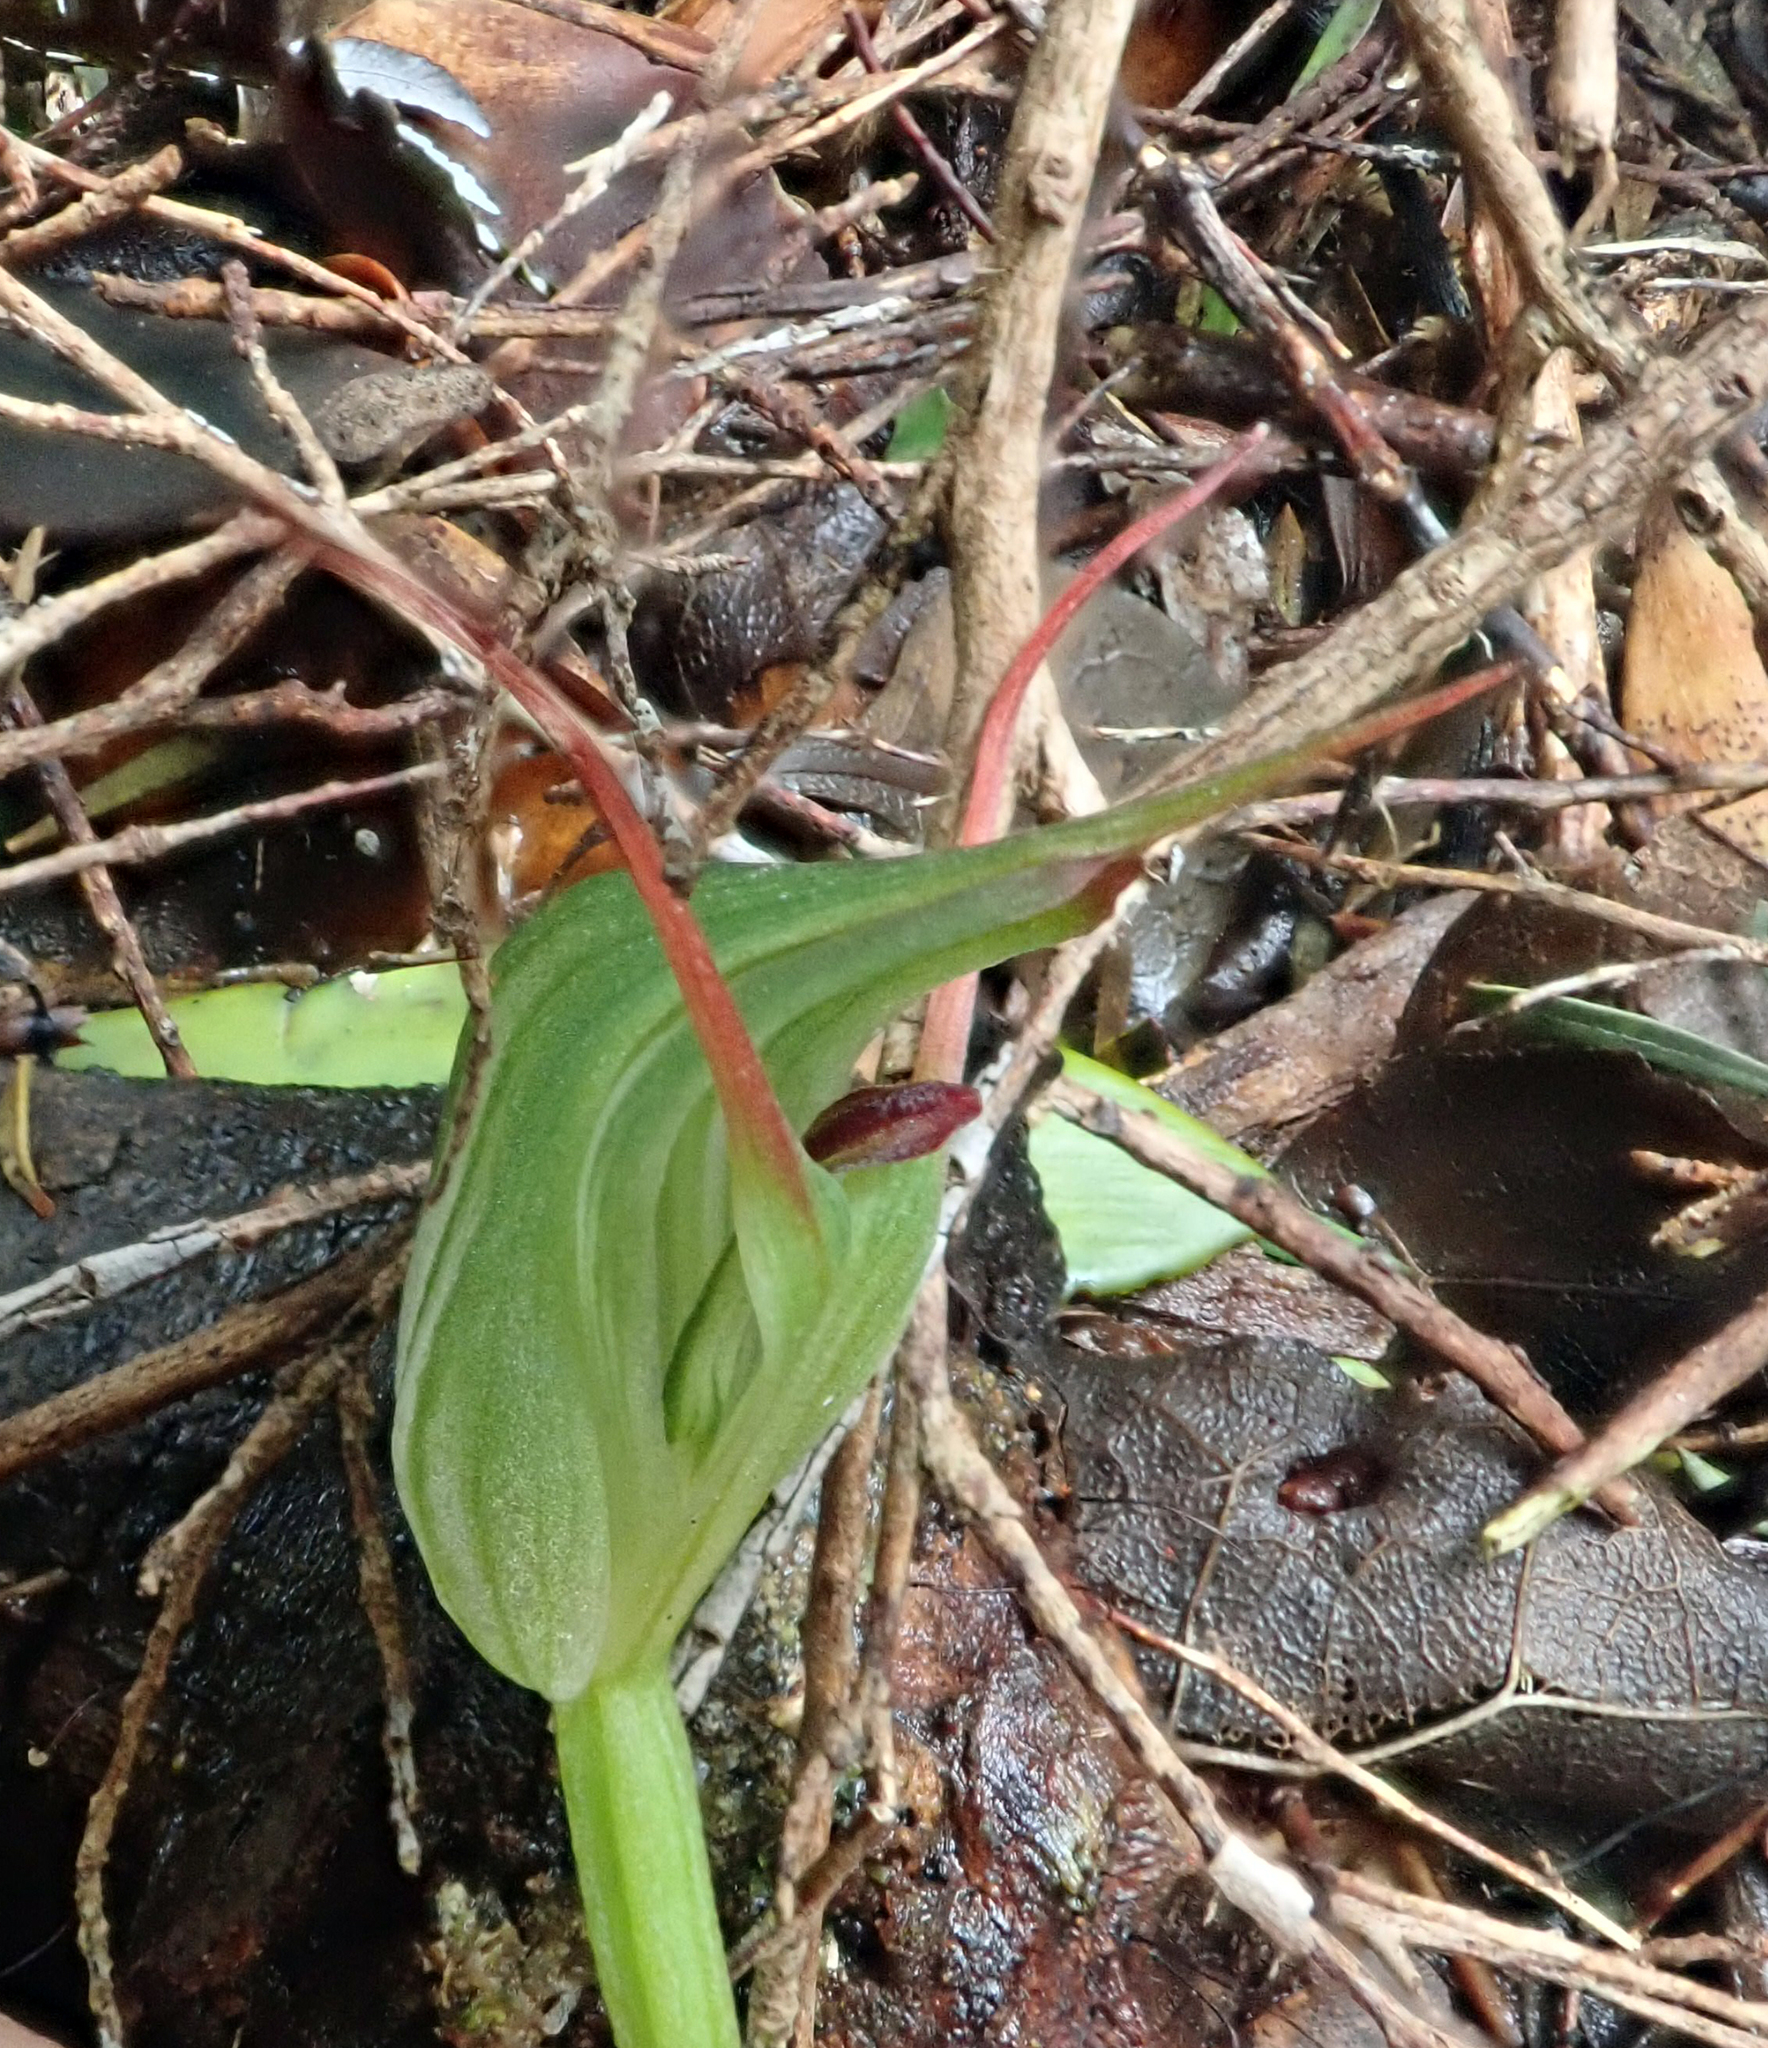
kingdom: Plantae
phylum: Tracheophyta
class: Liliopsida
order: Asparagales
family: Orchidaceae
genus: Pterostylis
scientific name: Pterostylis agathicola
